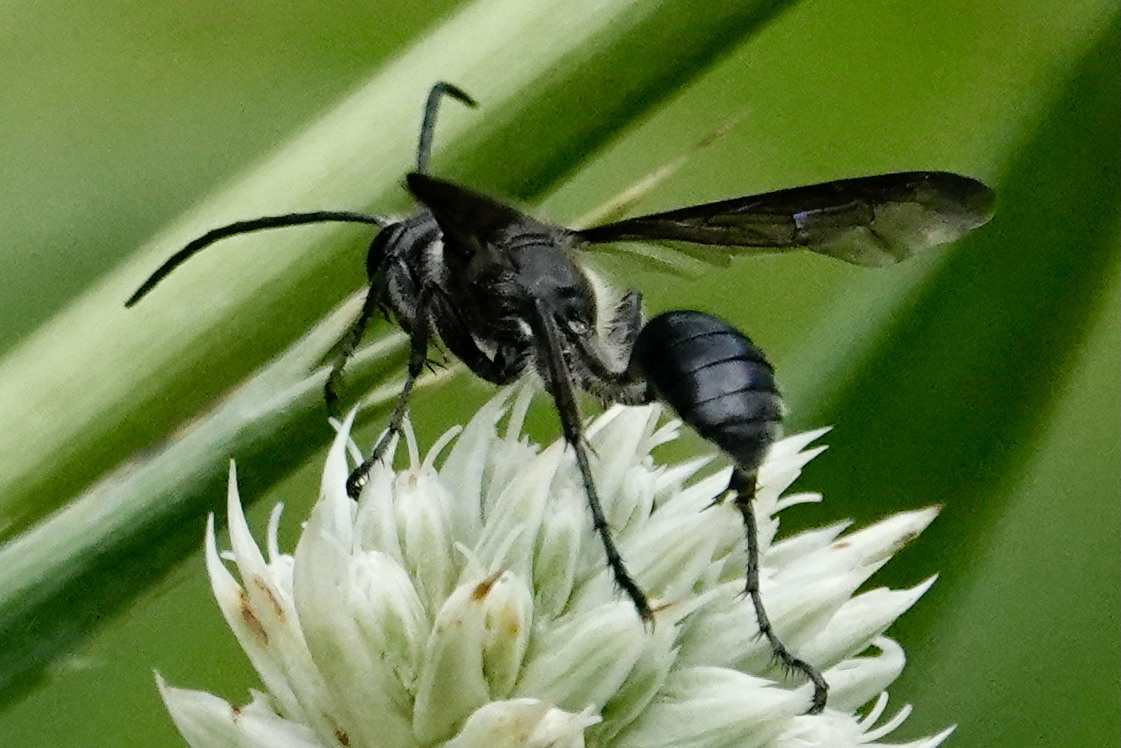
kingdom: Animalia
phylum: Arthropoda
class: Insecta
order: Hymenoptera
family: Sphecidae
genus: Isodontia
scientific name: Isodontia mexicana
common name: Mud dauber
